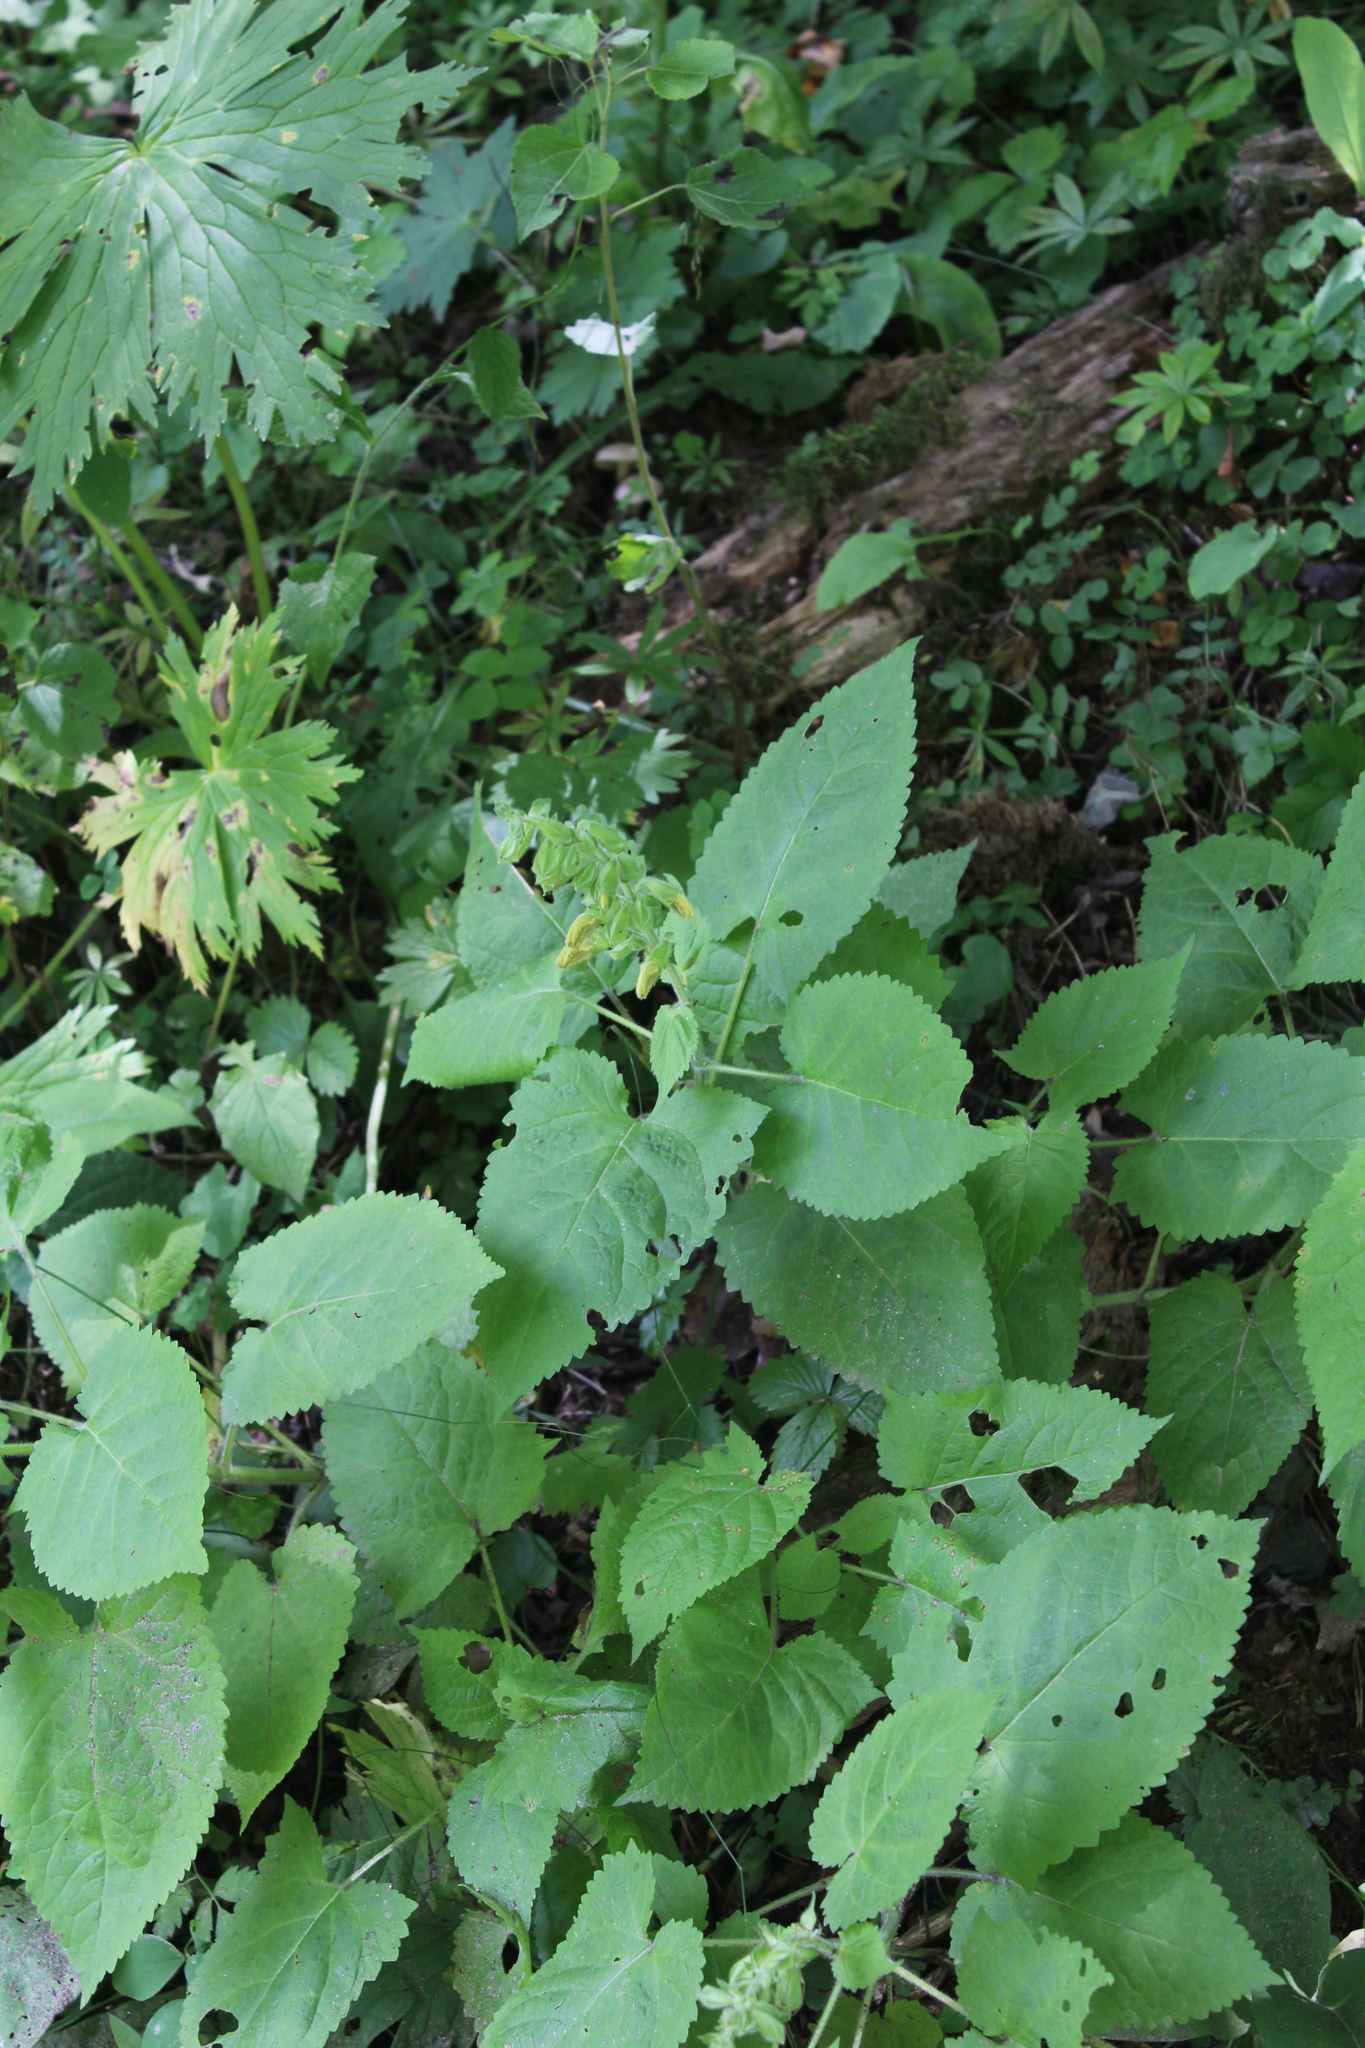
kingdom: Plantae
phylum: Tracheophyta
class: Magnoliopsida
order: Lamiales
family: Lamiaceae
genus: Salvia
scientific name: Salvia glutinosa
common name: Sticky clary
